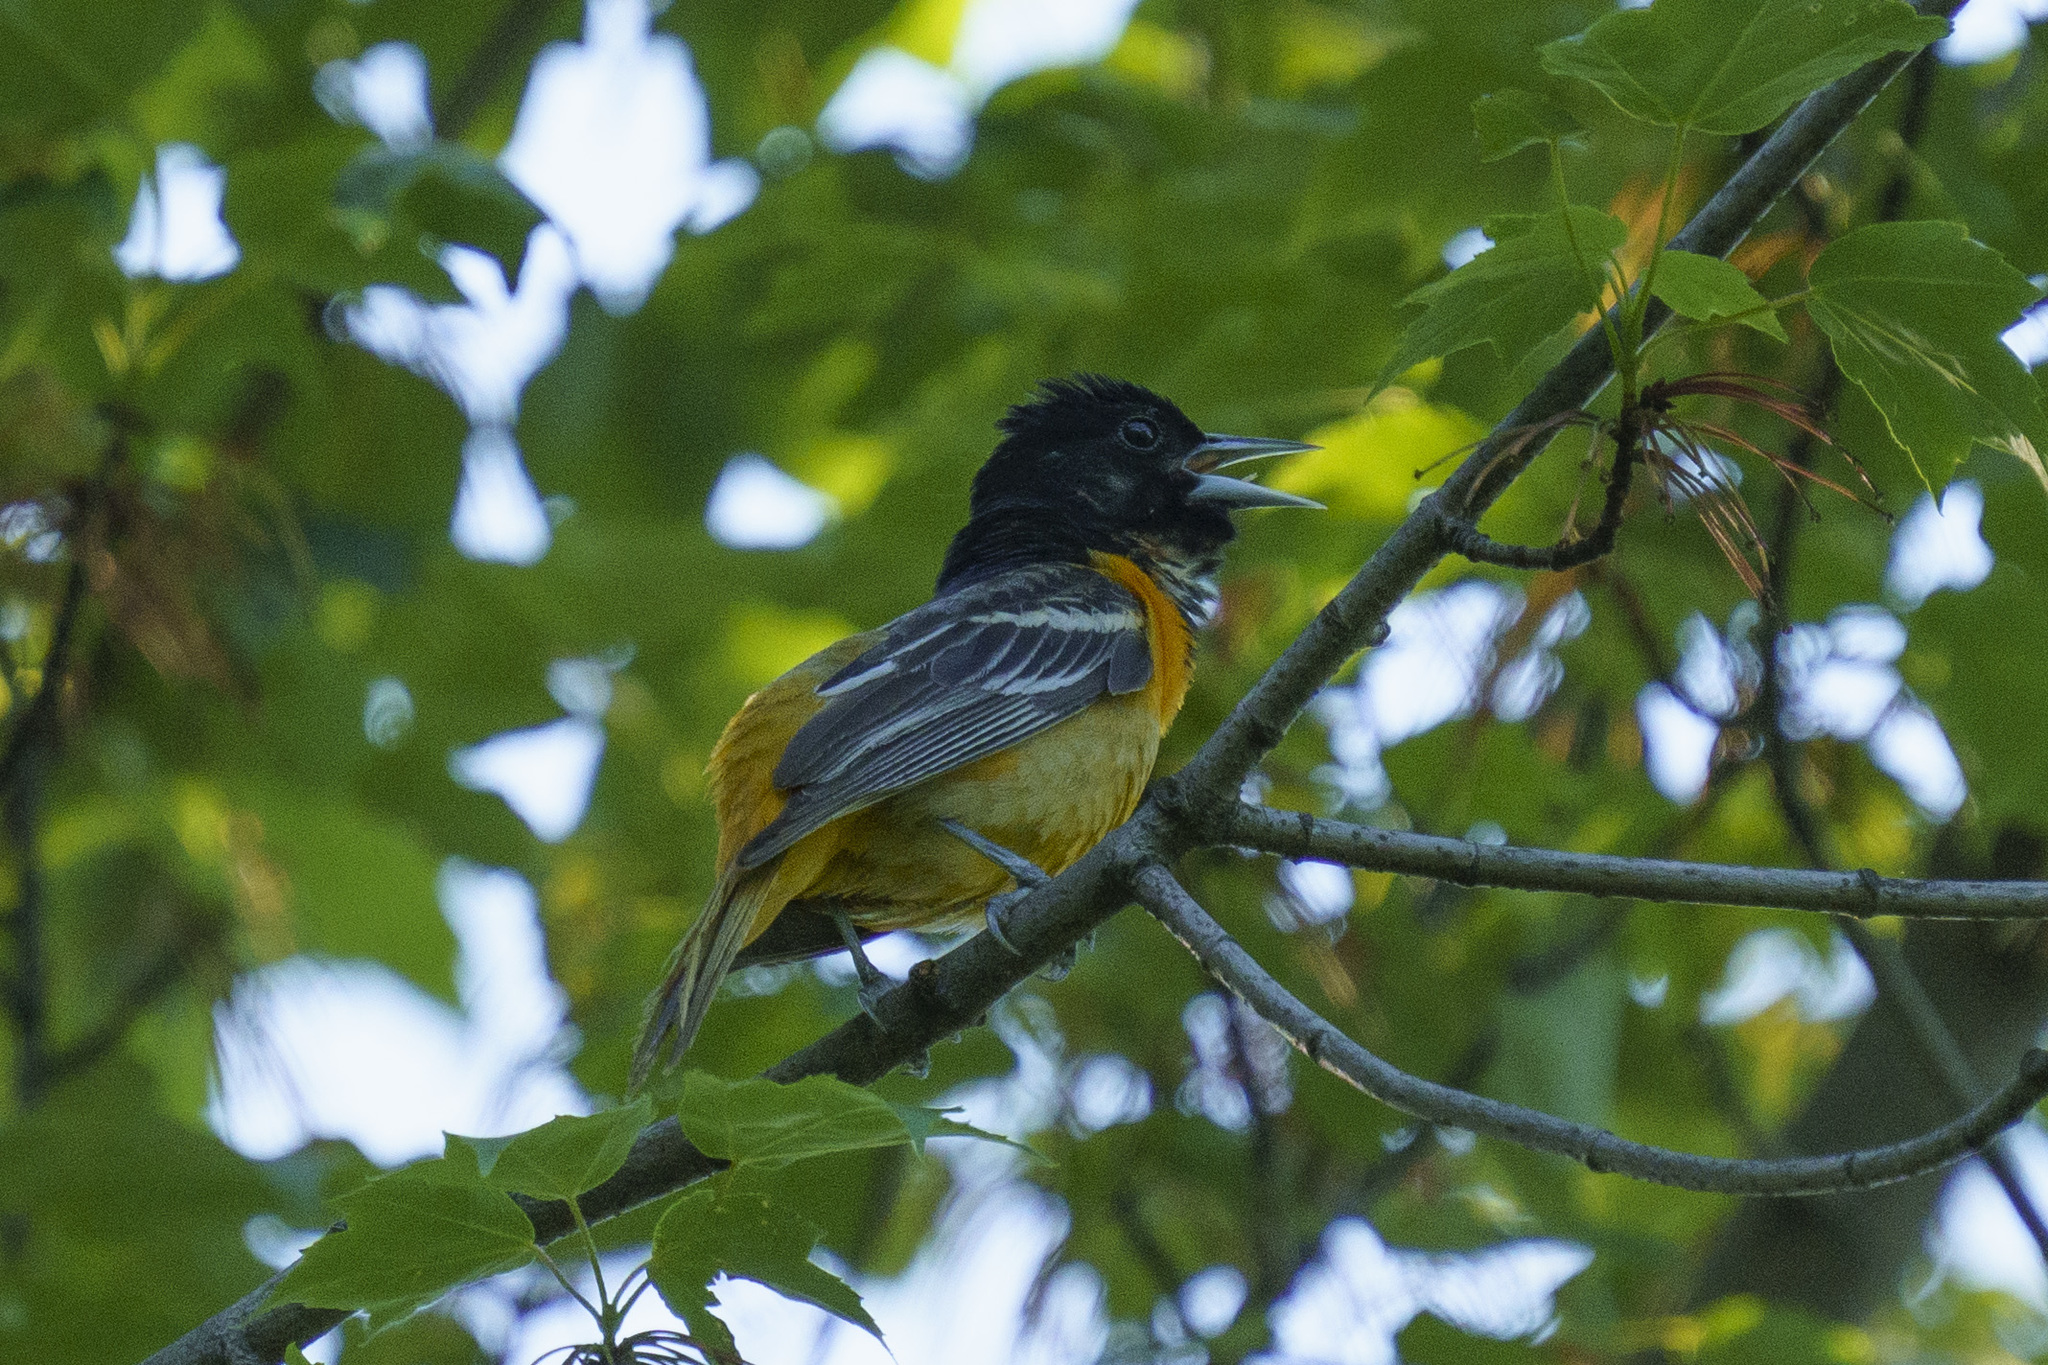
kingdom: Animalia
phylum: Chordata
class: Aves
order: Passeriformes
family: Icteridae
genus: Icterus
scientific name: Icterus galbula
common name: Baltimore oriole
